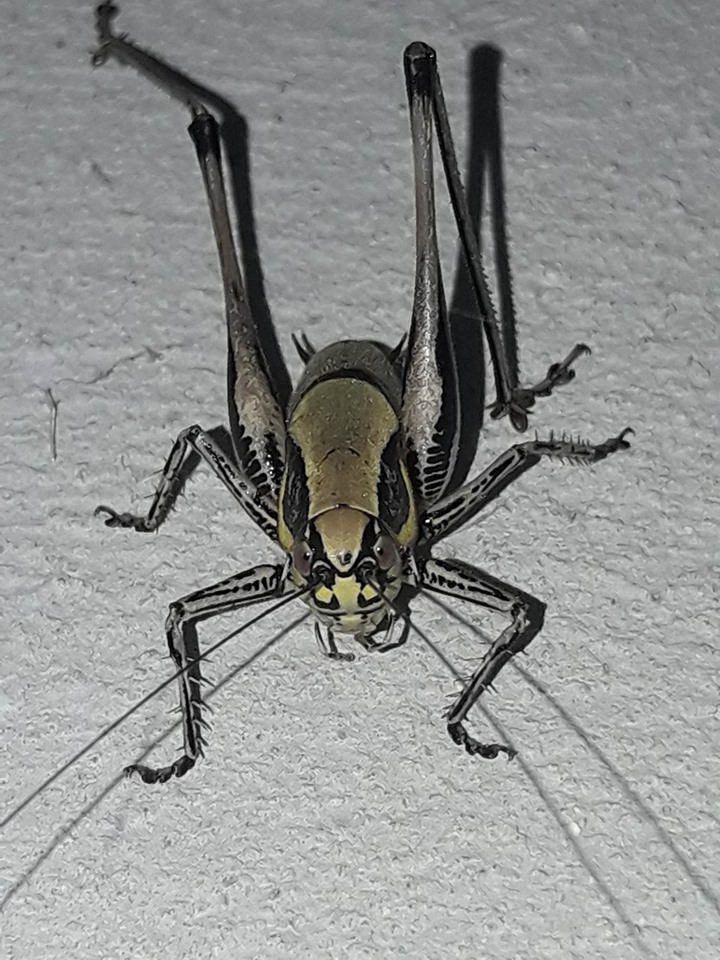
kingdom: Animalia
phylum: Arthropoda
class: Insecta
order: Orthoptera
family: Tettigoniidae
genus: Eupholidoptera
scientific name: Eupholidoptera
